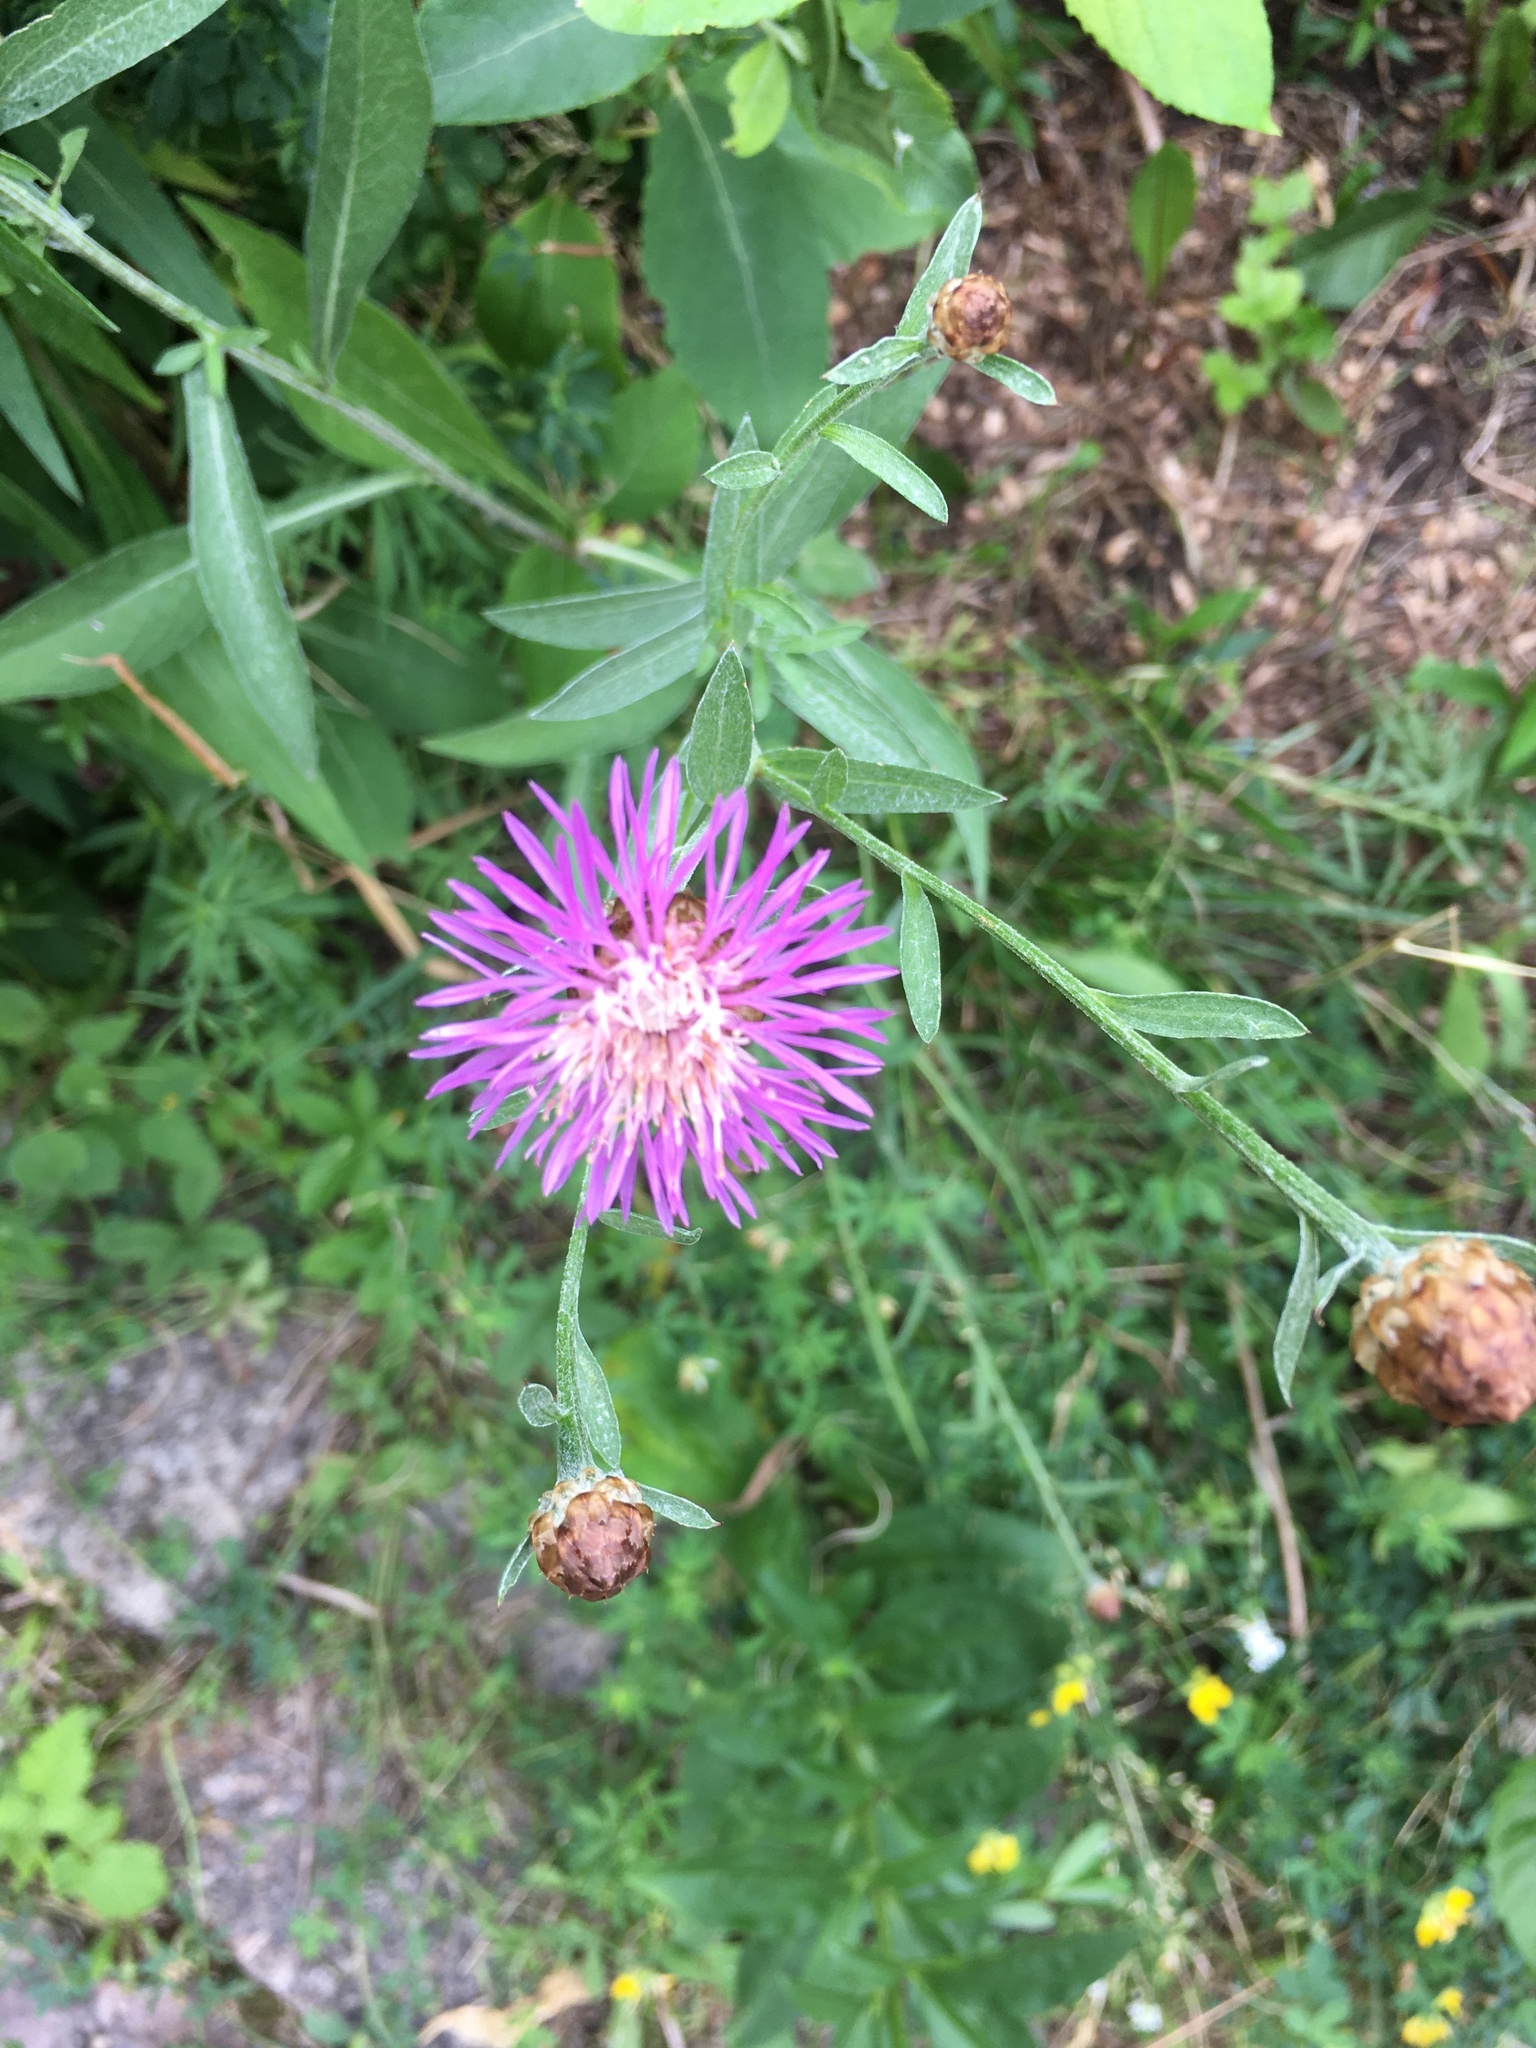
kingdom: Plantae
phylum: Tracheophyta
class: Magnoliopsida
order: Asterales
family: Asteraceae
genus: Centaurea
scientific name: Centaurea jacea
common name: Brown knapweed
